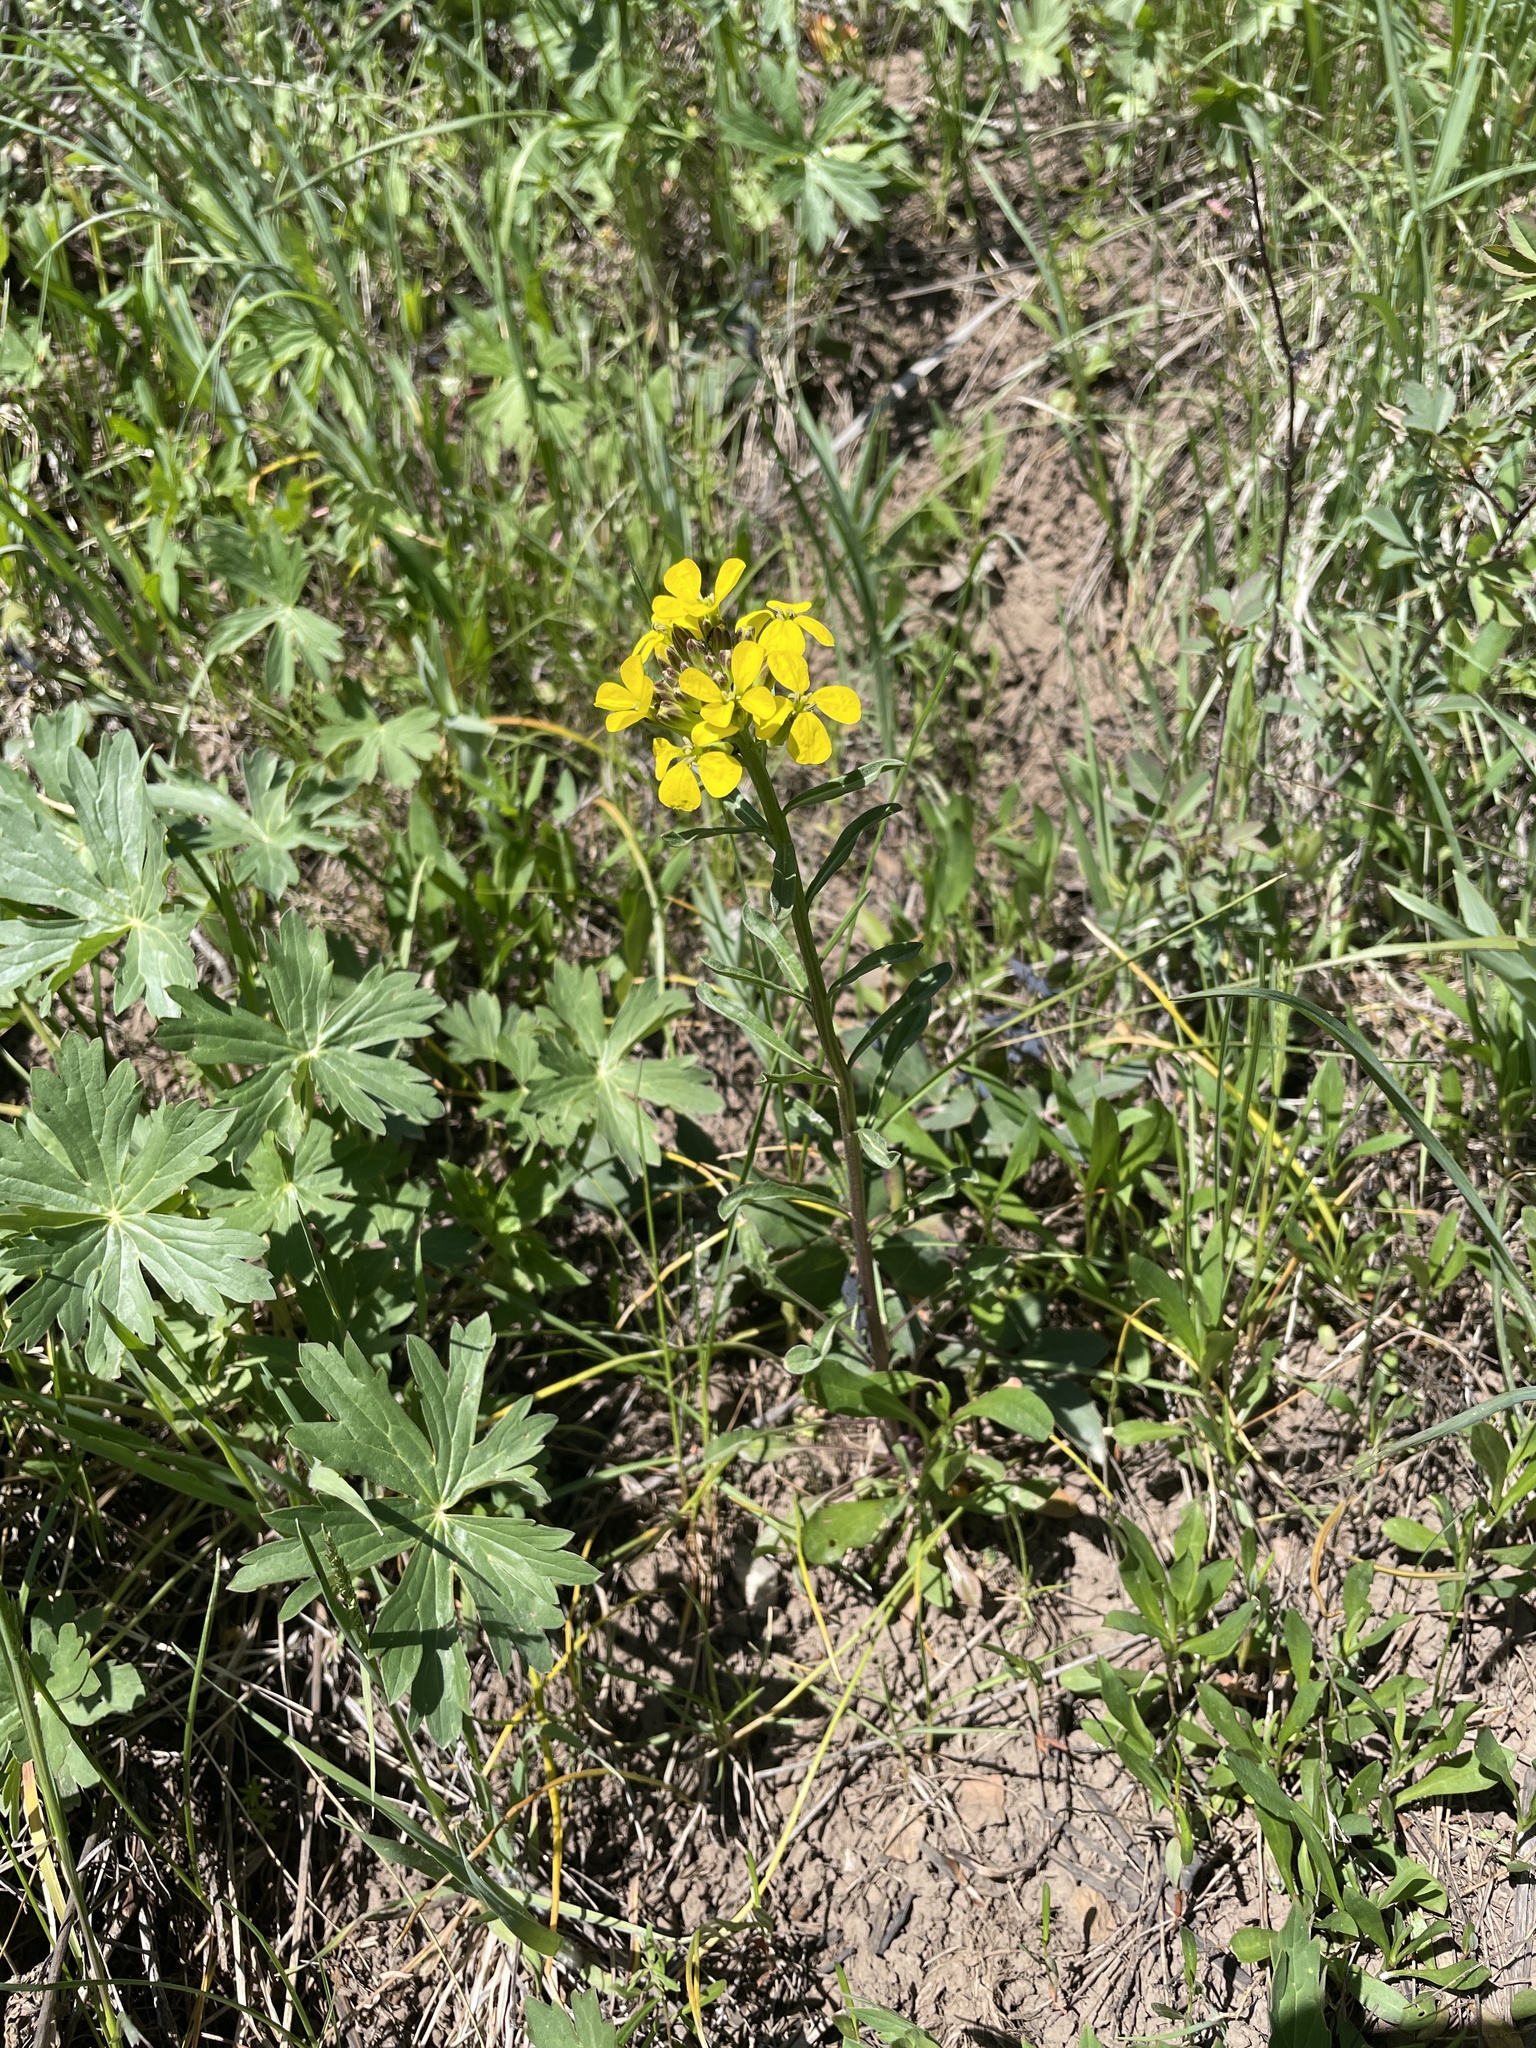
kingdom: Plantae
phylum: Tracheophyta
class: Magnoliopsida
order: Brassicales
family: Brassicaceae
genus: Erysimum
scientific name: Erysimum capitatum
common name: Western wallflower
